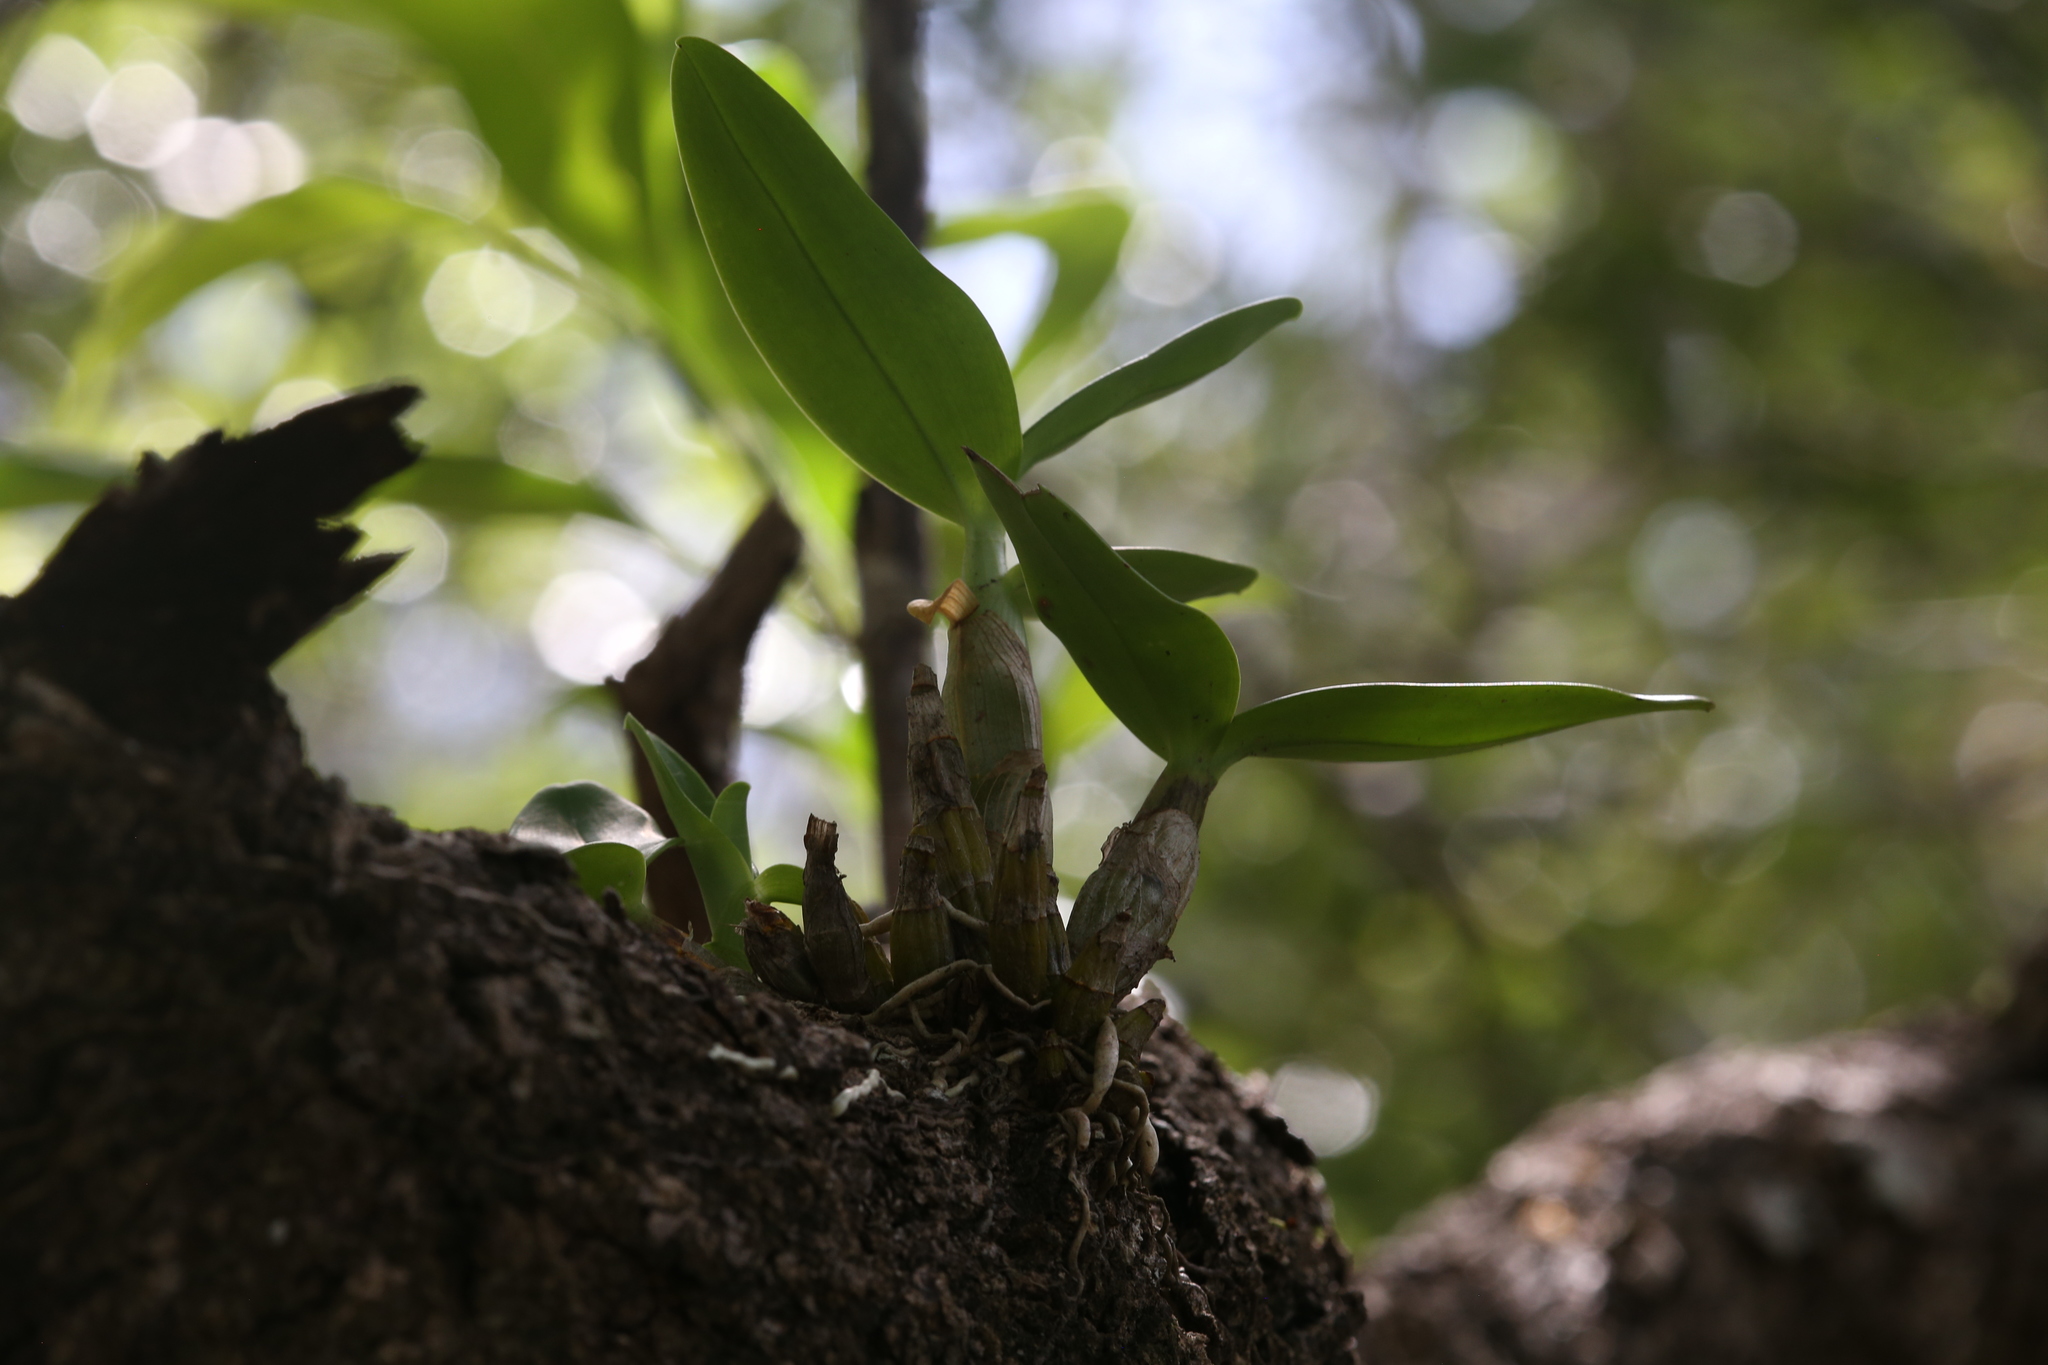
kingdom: Plantae
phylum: Tracheophyta
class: Liliopsida
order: Asparagales
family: Orchidaceae
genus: Dendrobium
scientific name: Dendrobium discolor
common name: Golden antler orchid
